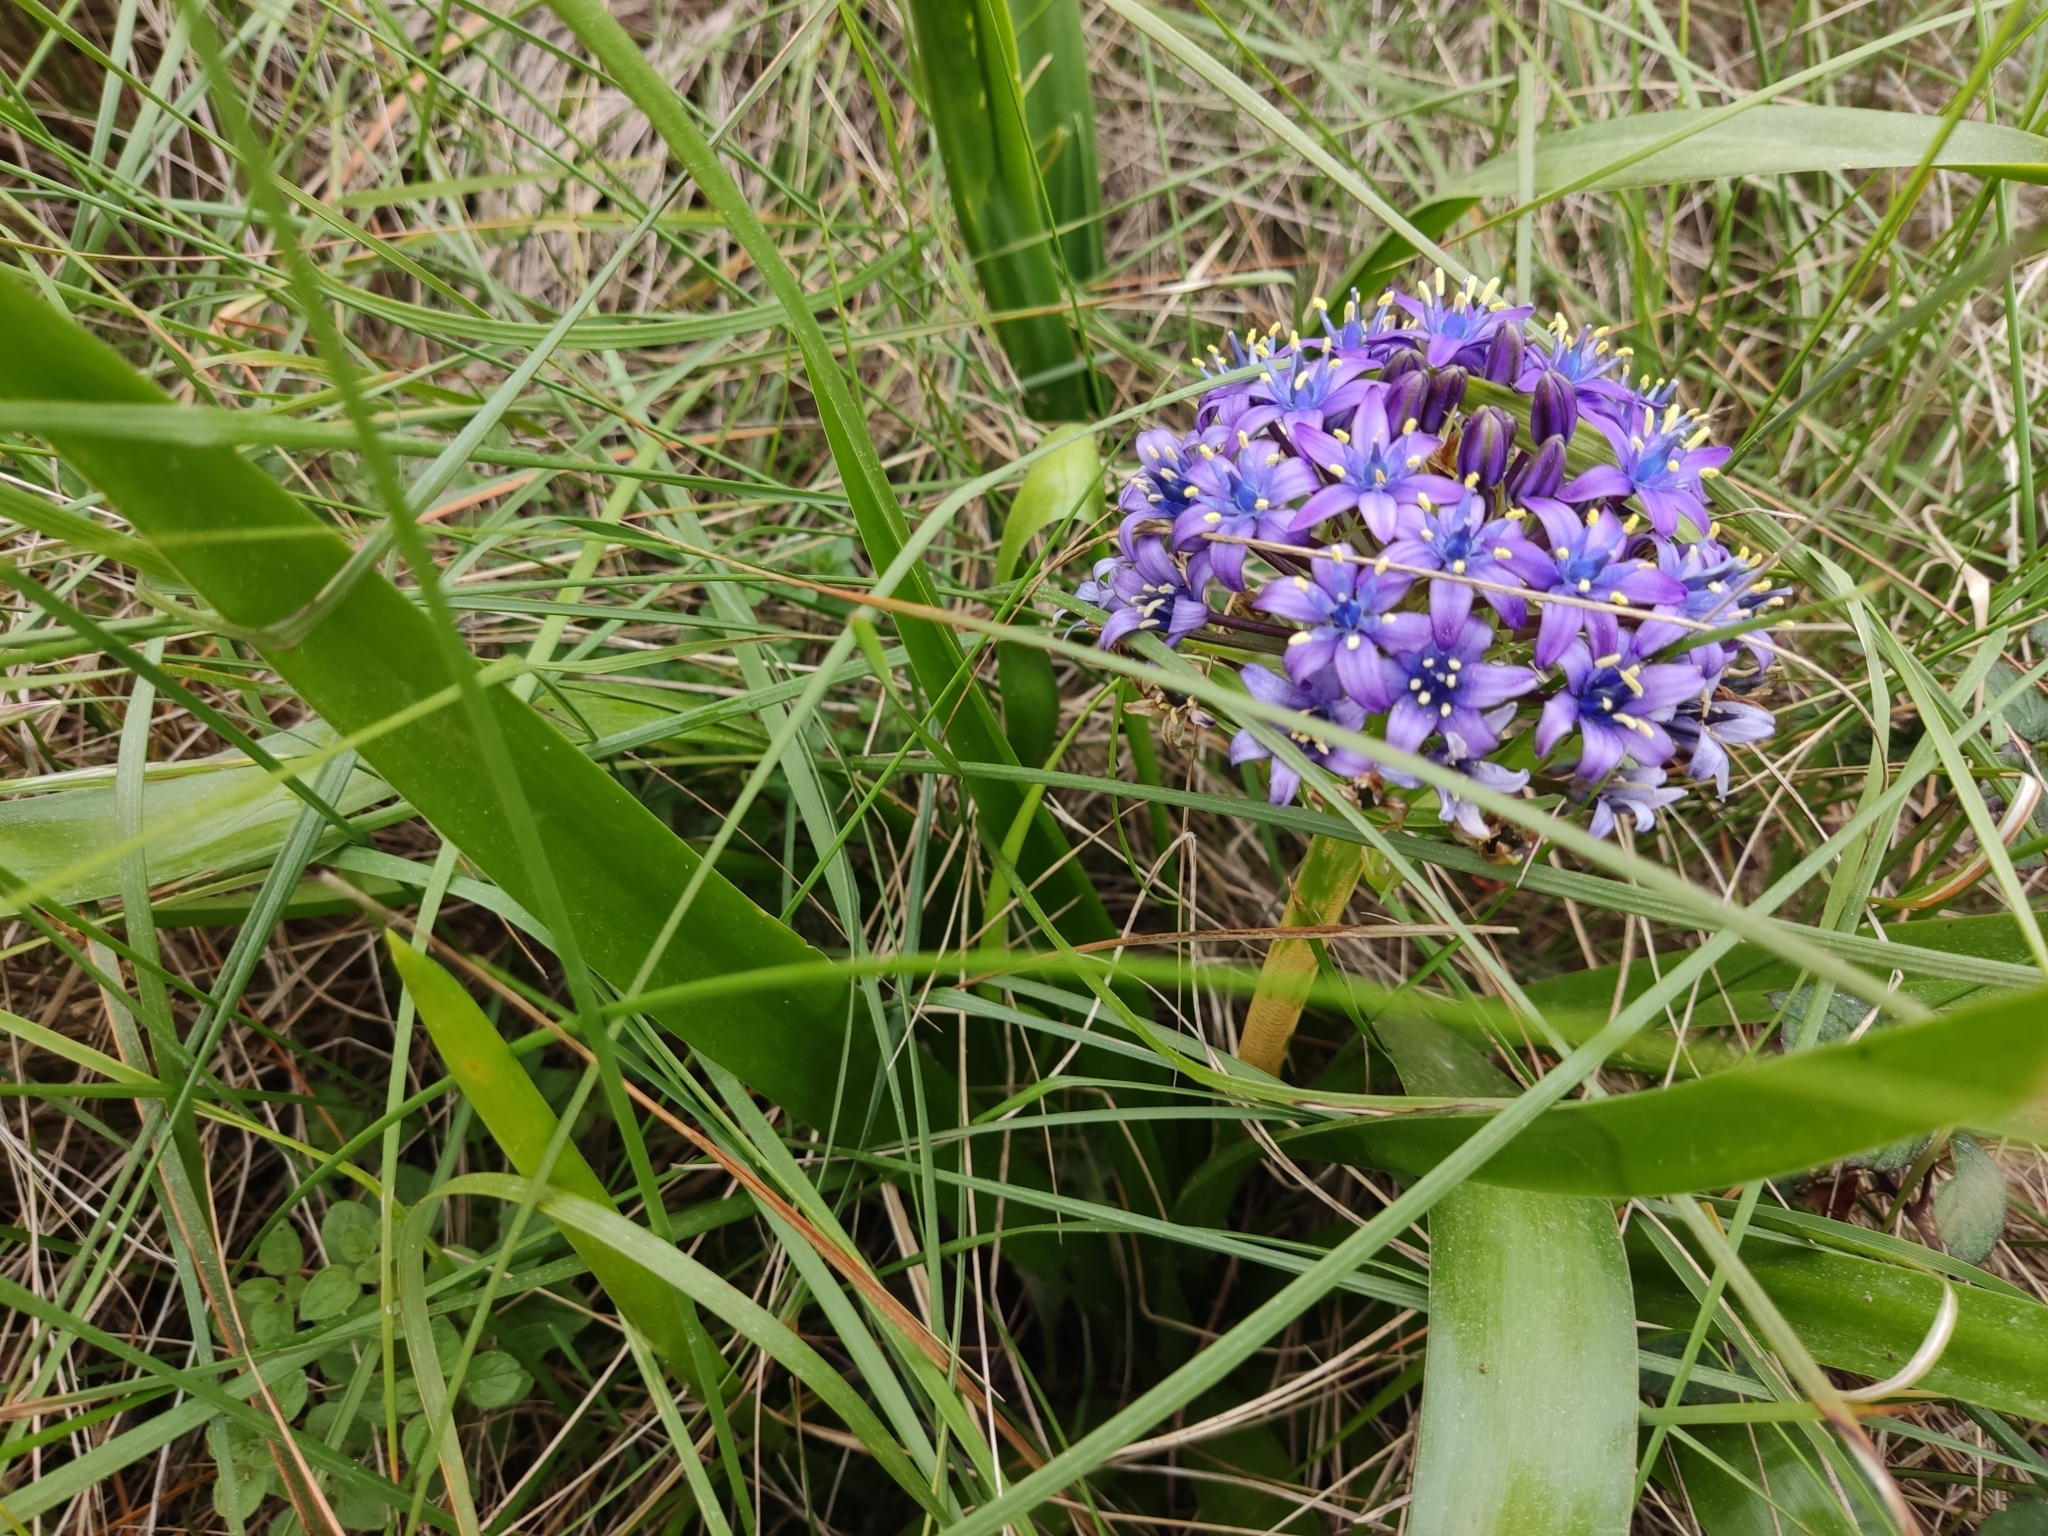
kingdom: Plantae
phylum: Tracheophyta
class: Liliopsida
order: Asparagales
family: Asparagaceae
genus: Scilla
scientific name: Scilla peruviana
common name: Portuguese squill
